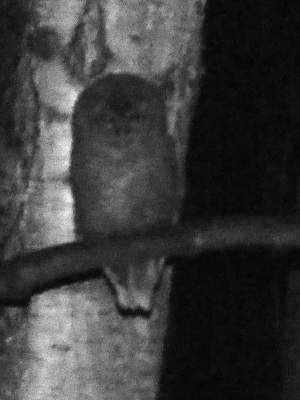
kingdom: Animalia
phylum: Chordata
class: Aves
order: Strigiformes
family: Strigidae
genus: Strix
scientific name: Strix aluco
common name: Tawny owl
